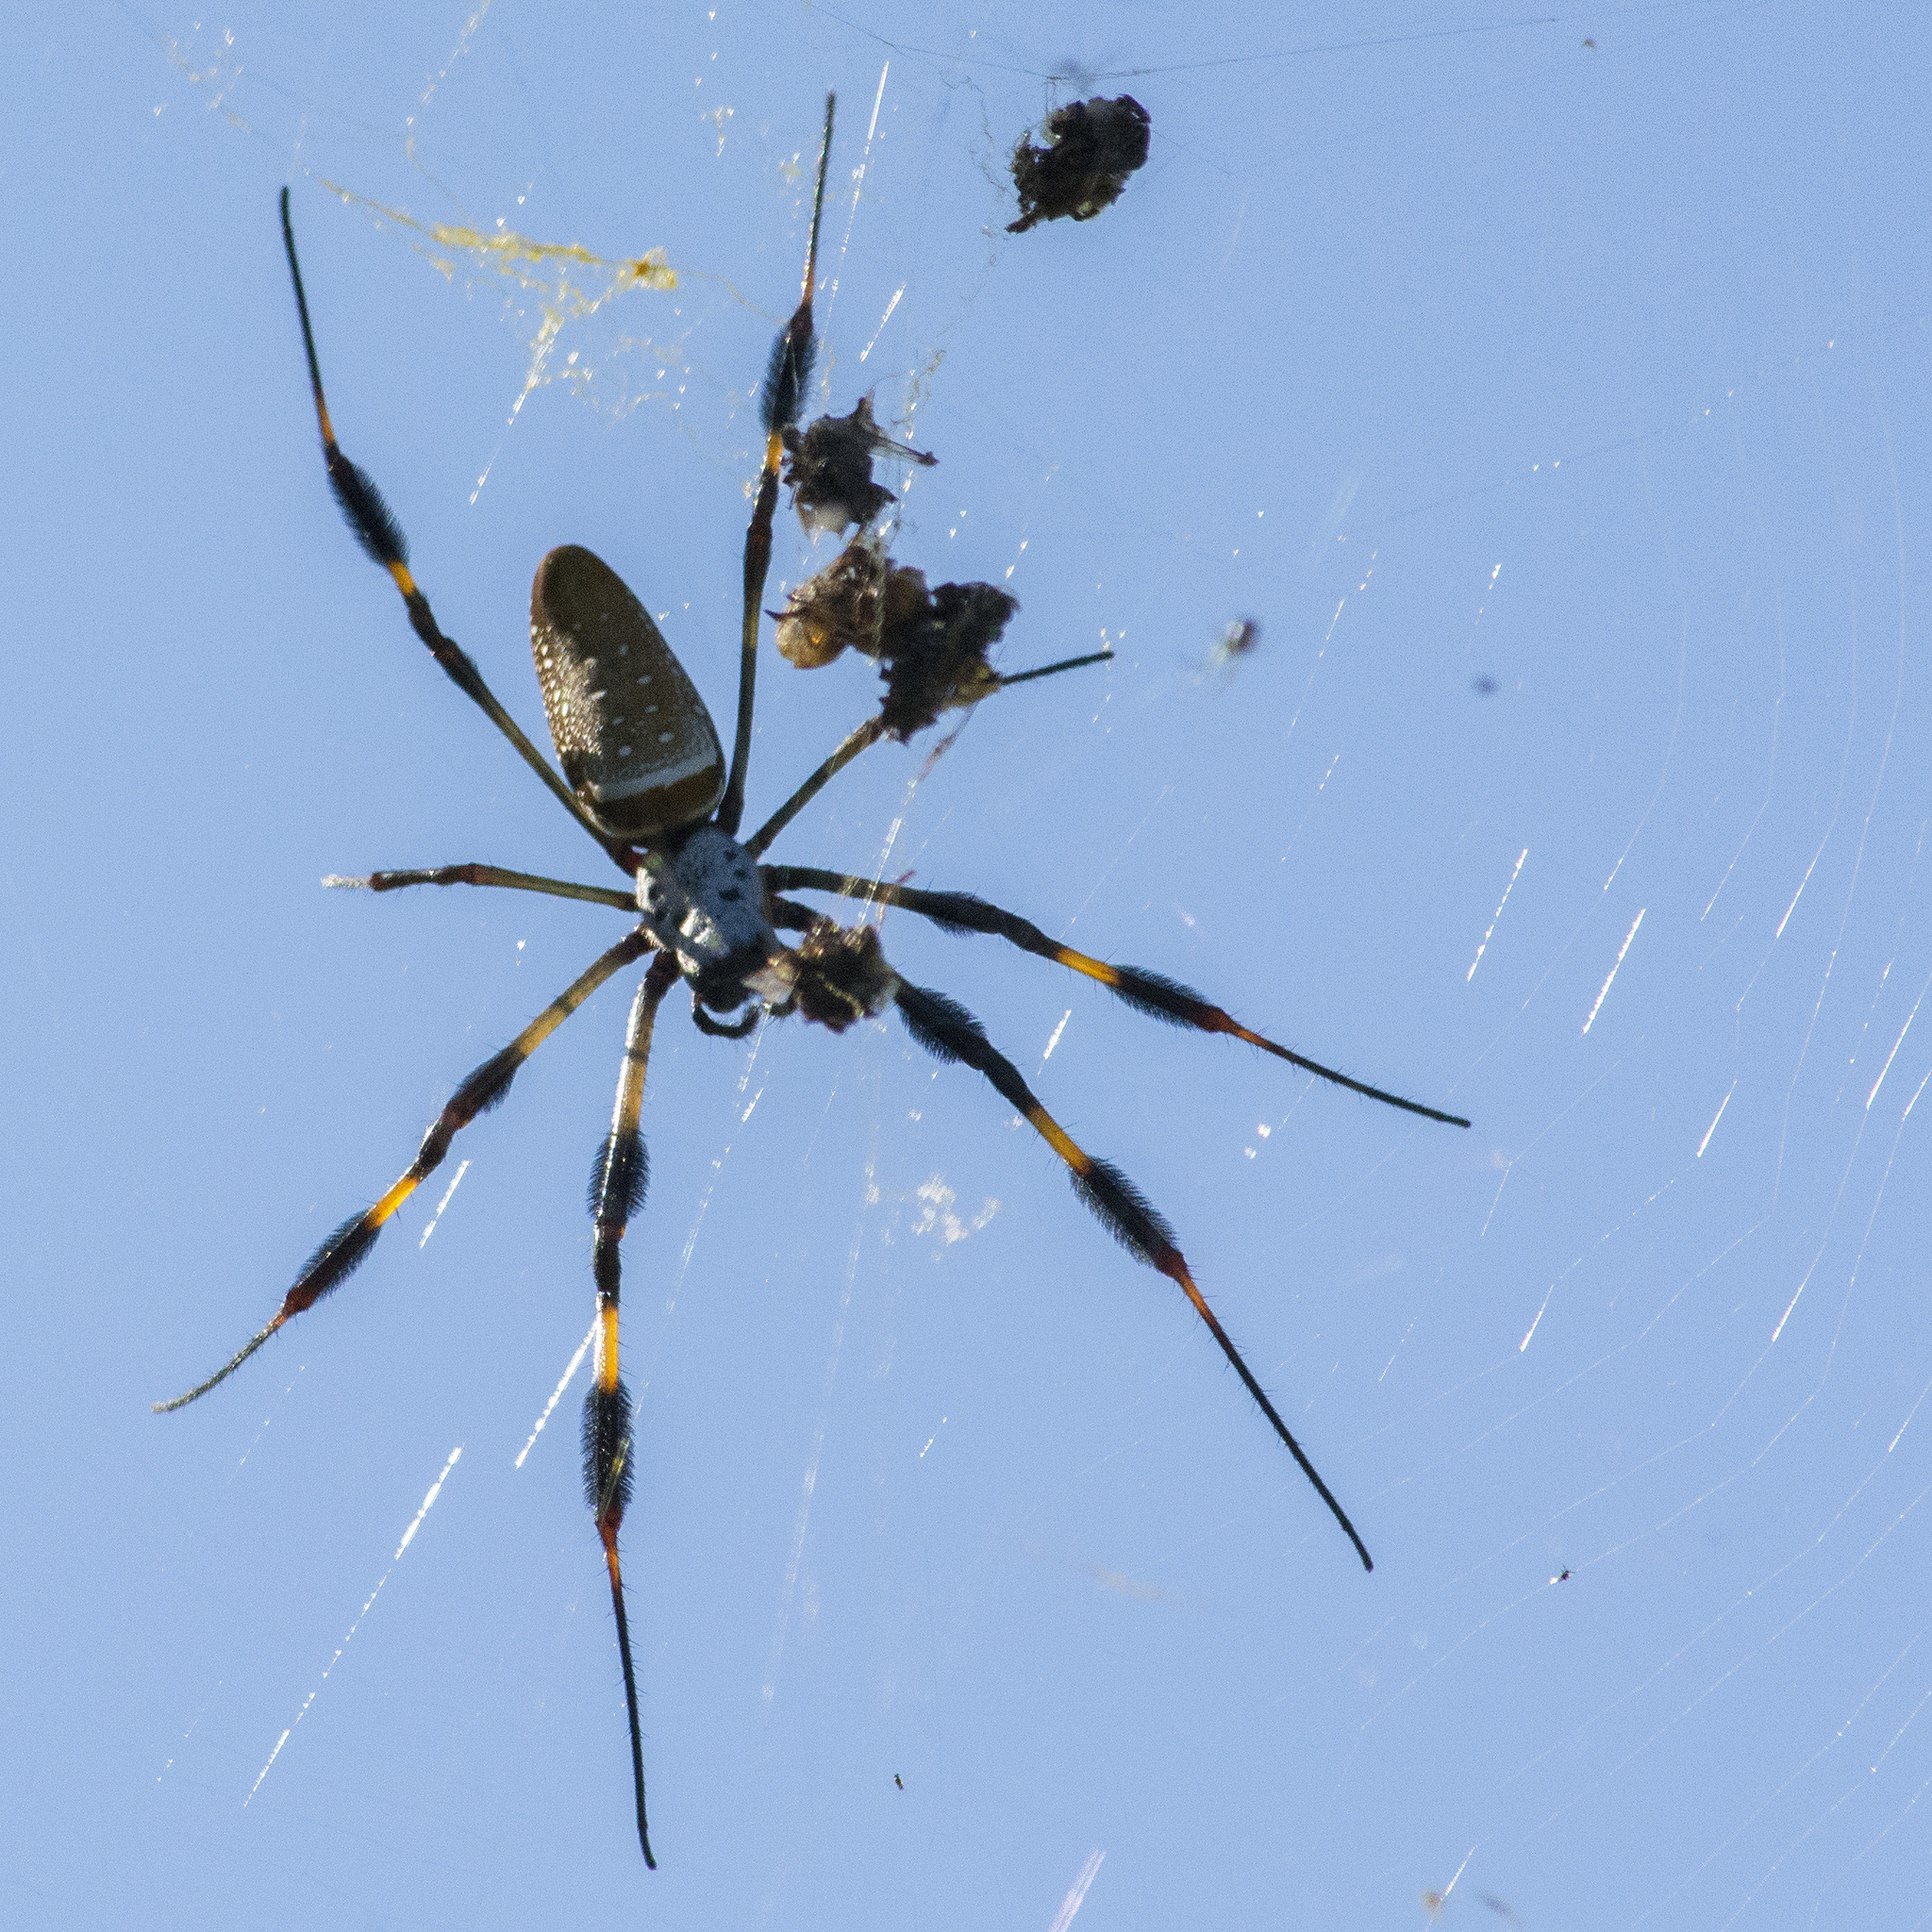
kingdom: Animalia
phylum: Arthropoda
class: Arachnida
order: Araneae
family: Araneidae
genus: Trichonephila
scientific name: Trichonephila clavipes
